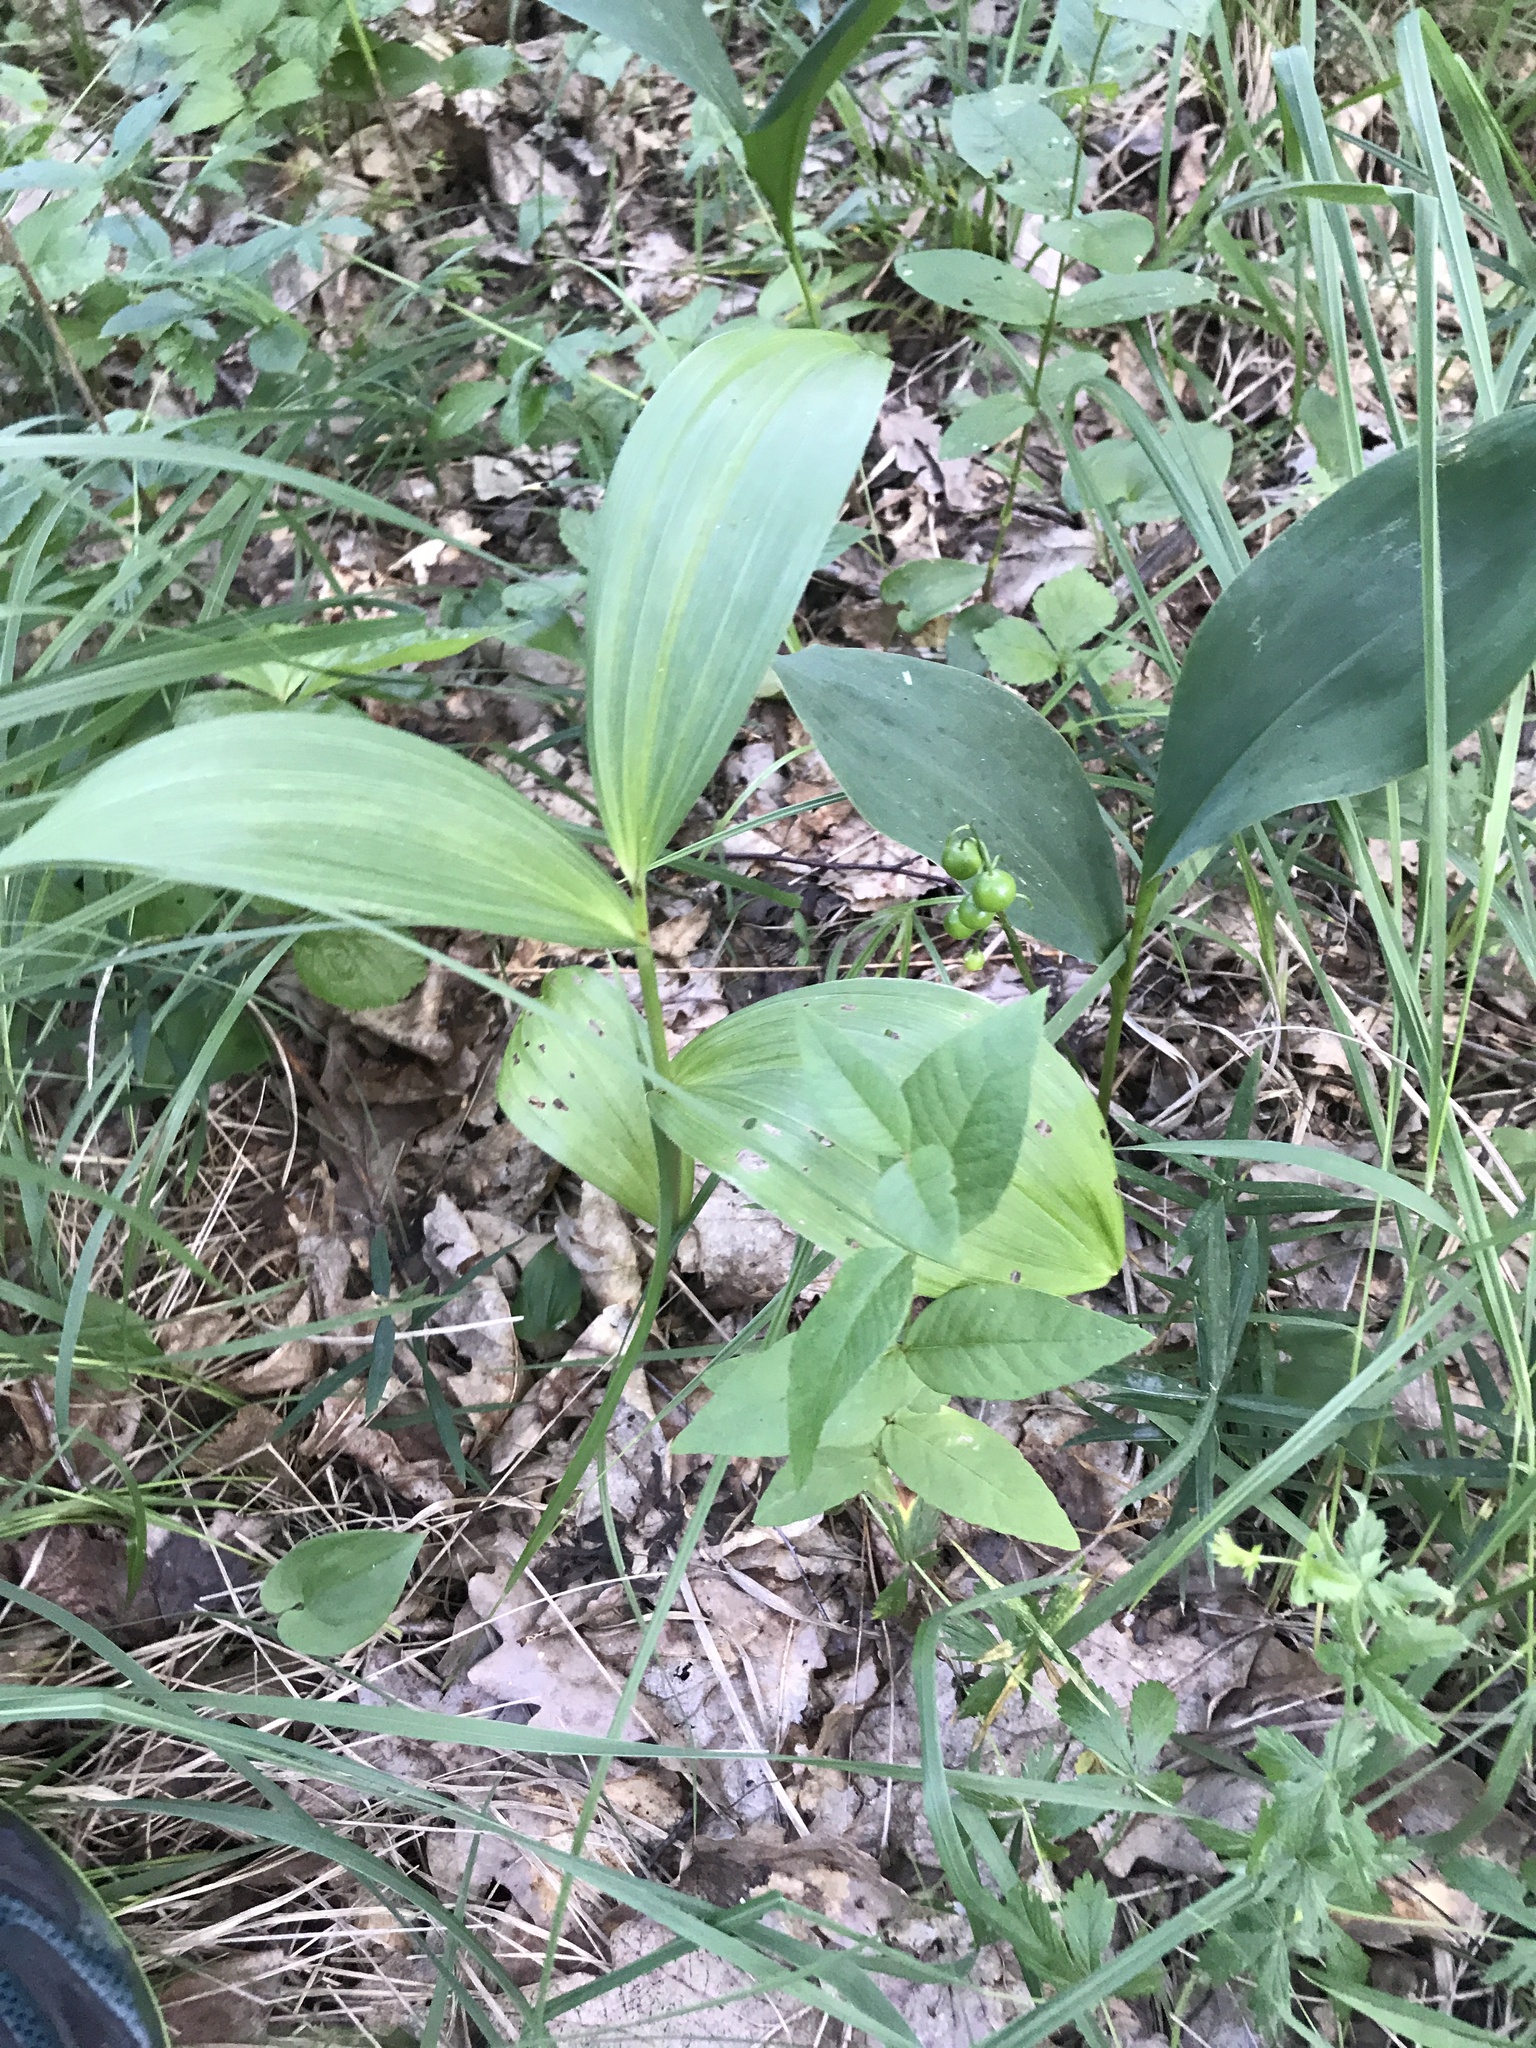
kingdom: Plantae
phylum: Tracheophyta
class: Liliopsida
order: Liliales
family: Melanthiaceae
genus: Veratrum
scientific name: Veratrum lobelianum
